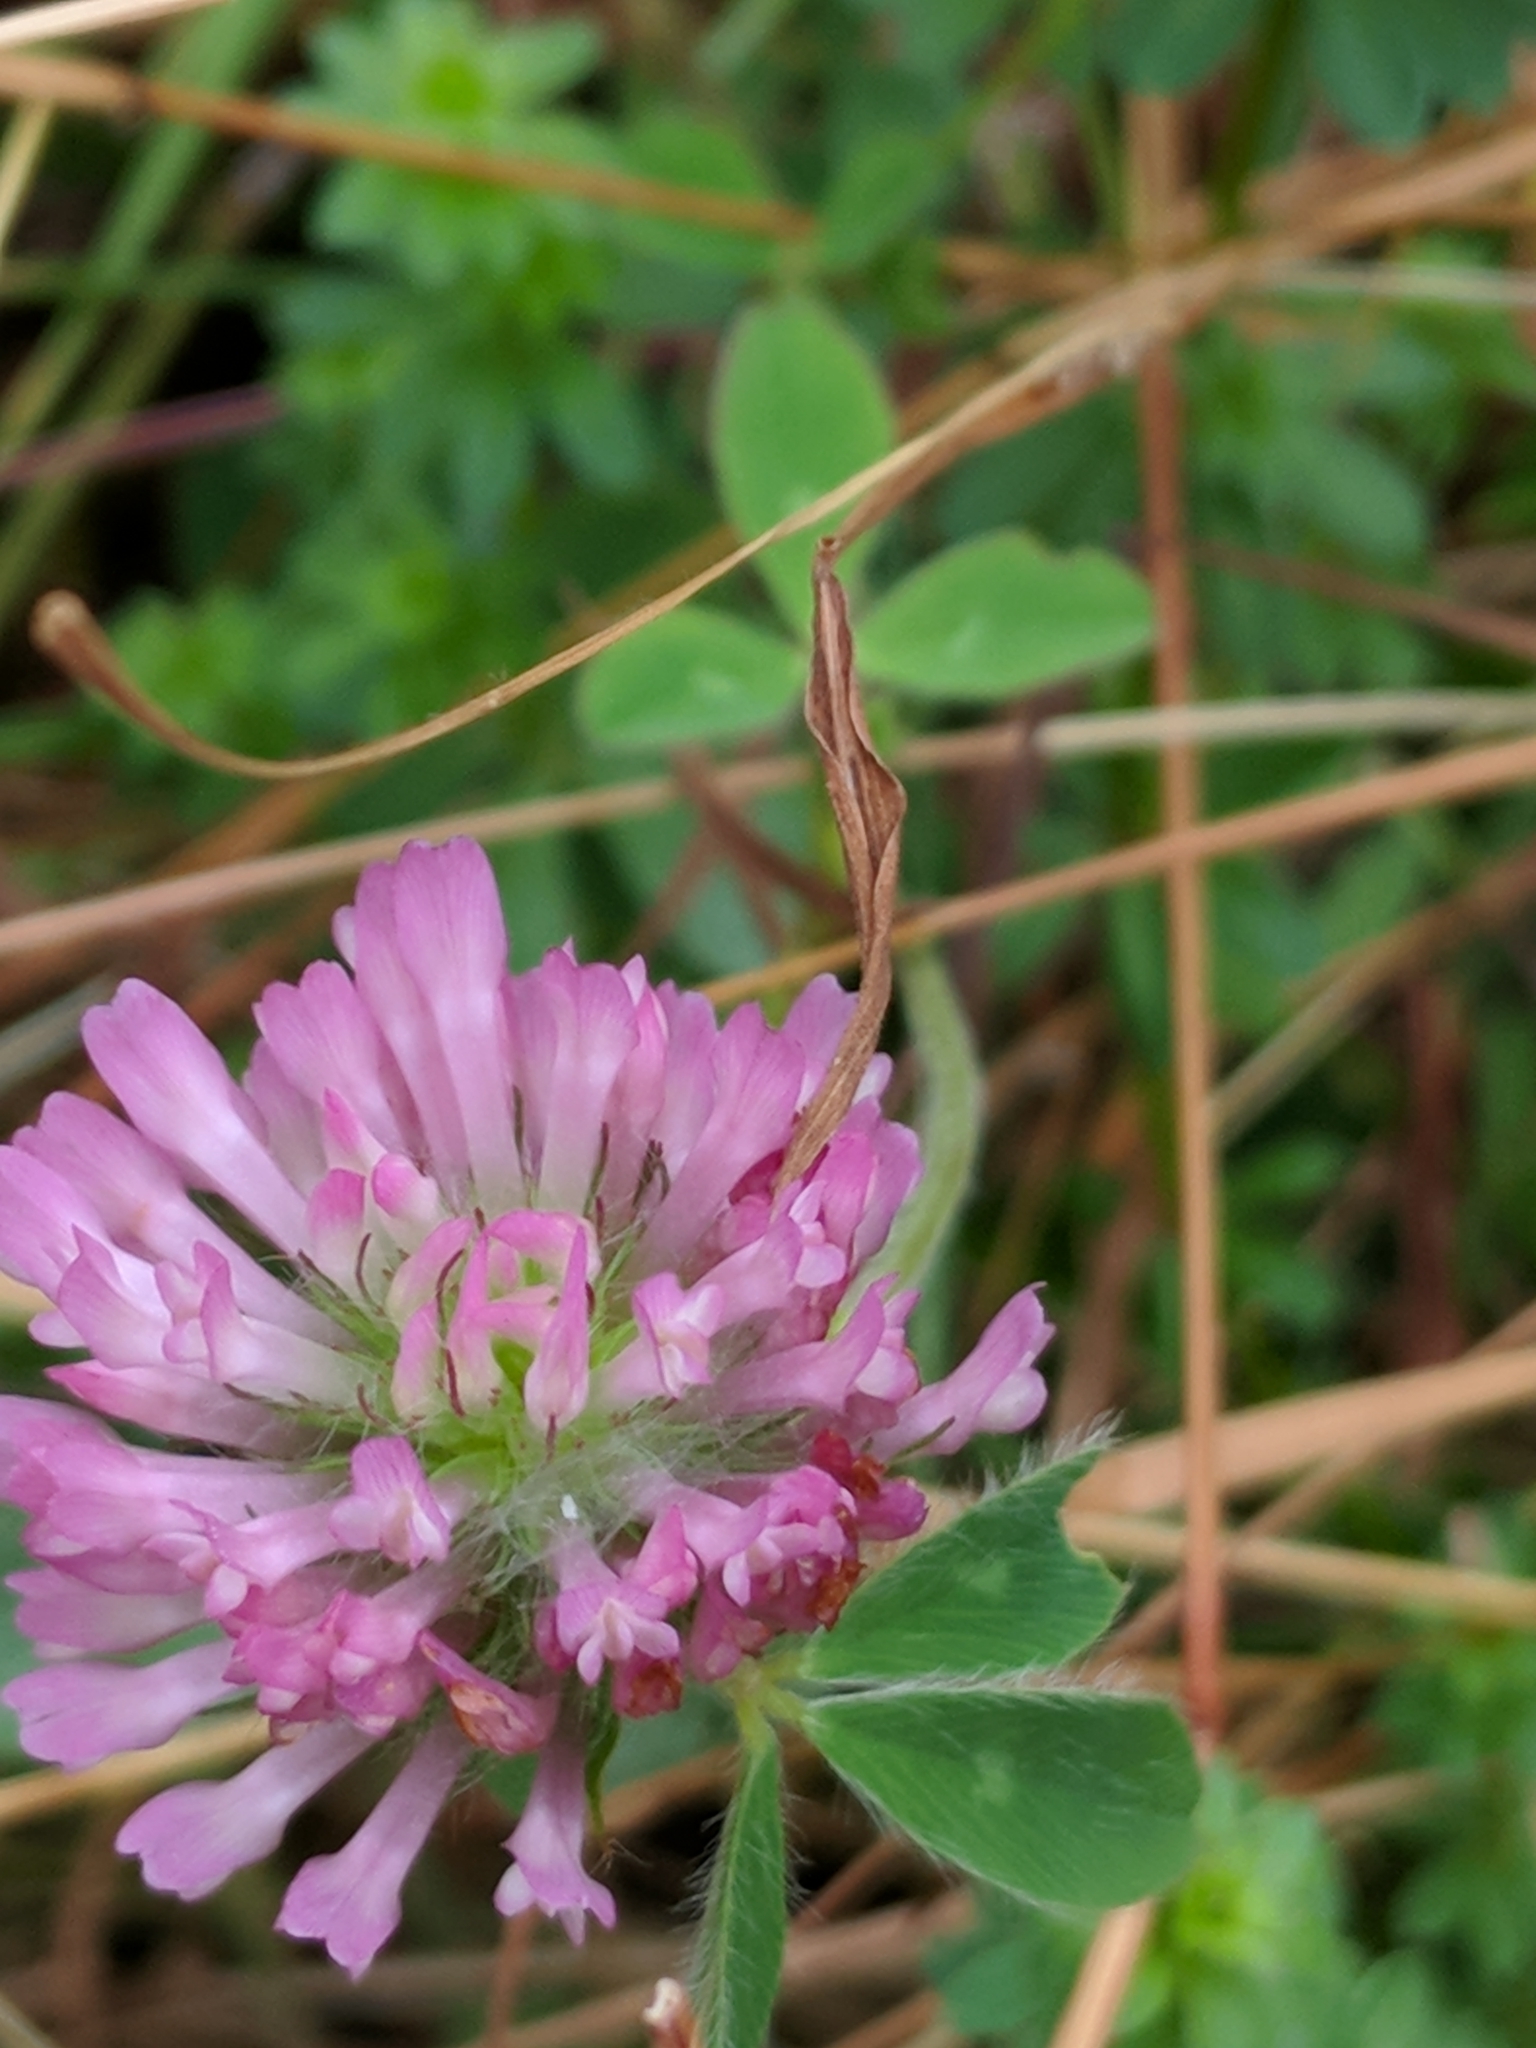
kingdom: Plantae
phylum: Tracheophyta
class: Magnoliopsida
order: Fabales
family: Fabaceae
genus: Trifolium
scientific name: Trifolium pratense
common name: Red clover
